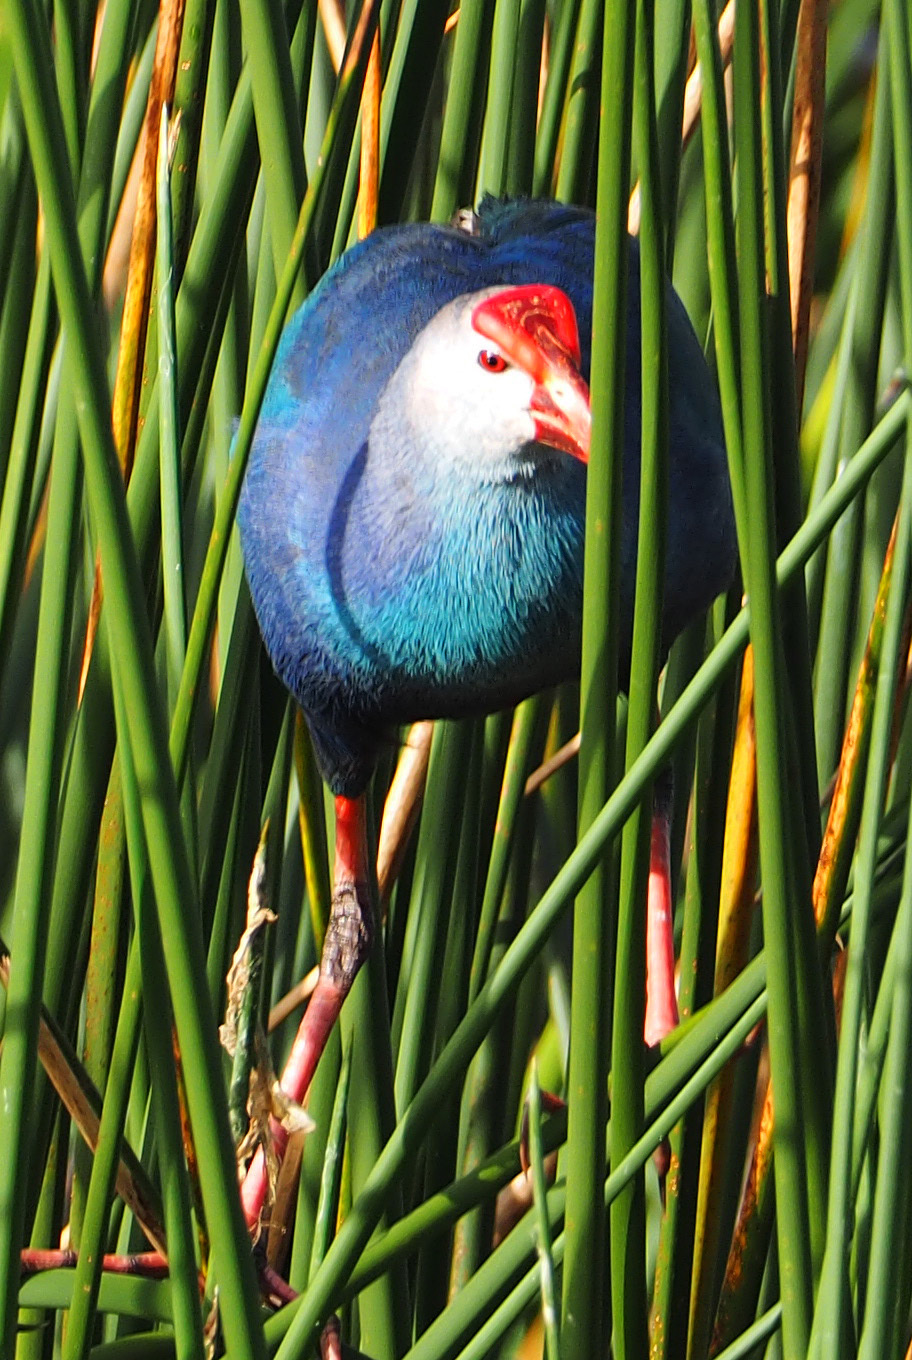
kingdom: Animalia
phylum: Chordata
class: Aves
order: Gruiformes
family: Rallidae
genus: Porphyrio
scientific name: Porphyrio porphyrio
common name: Purple swamphen
